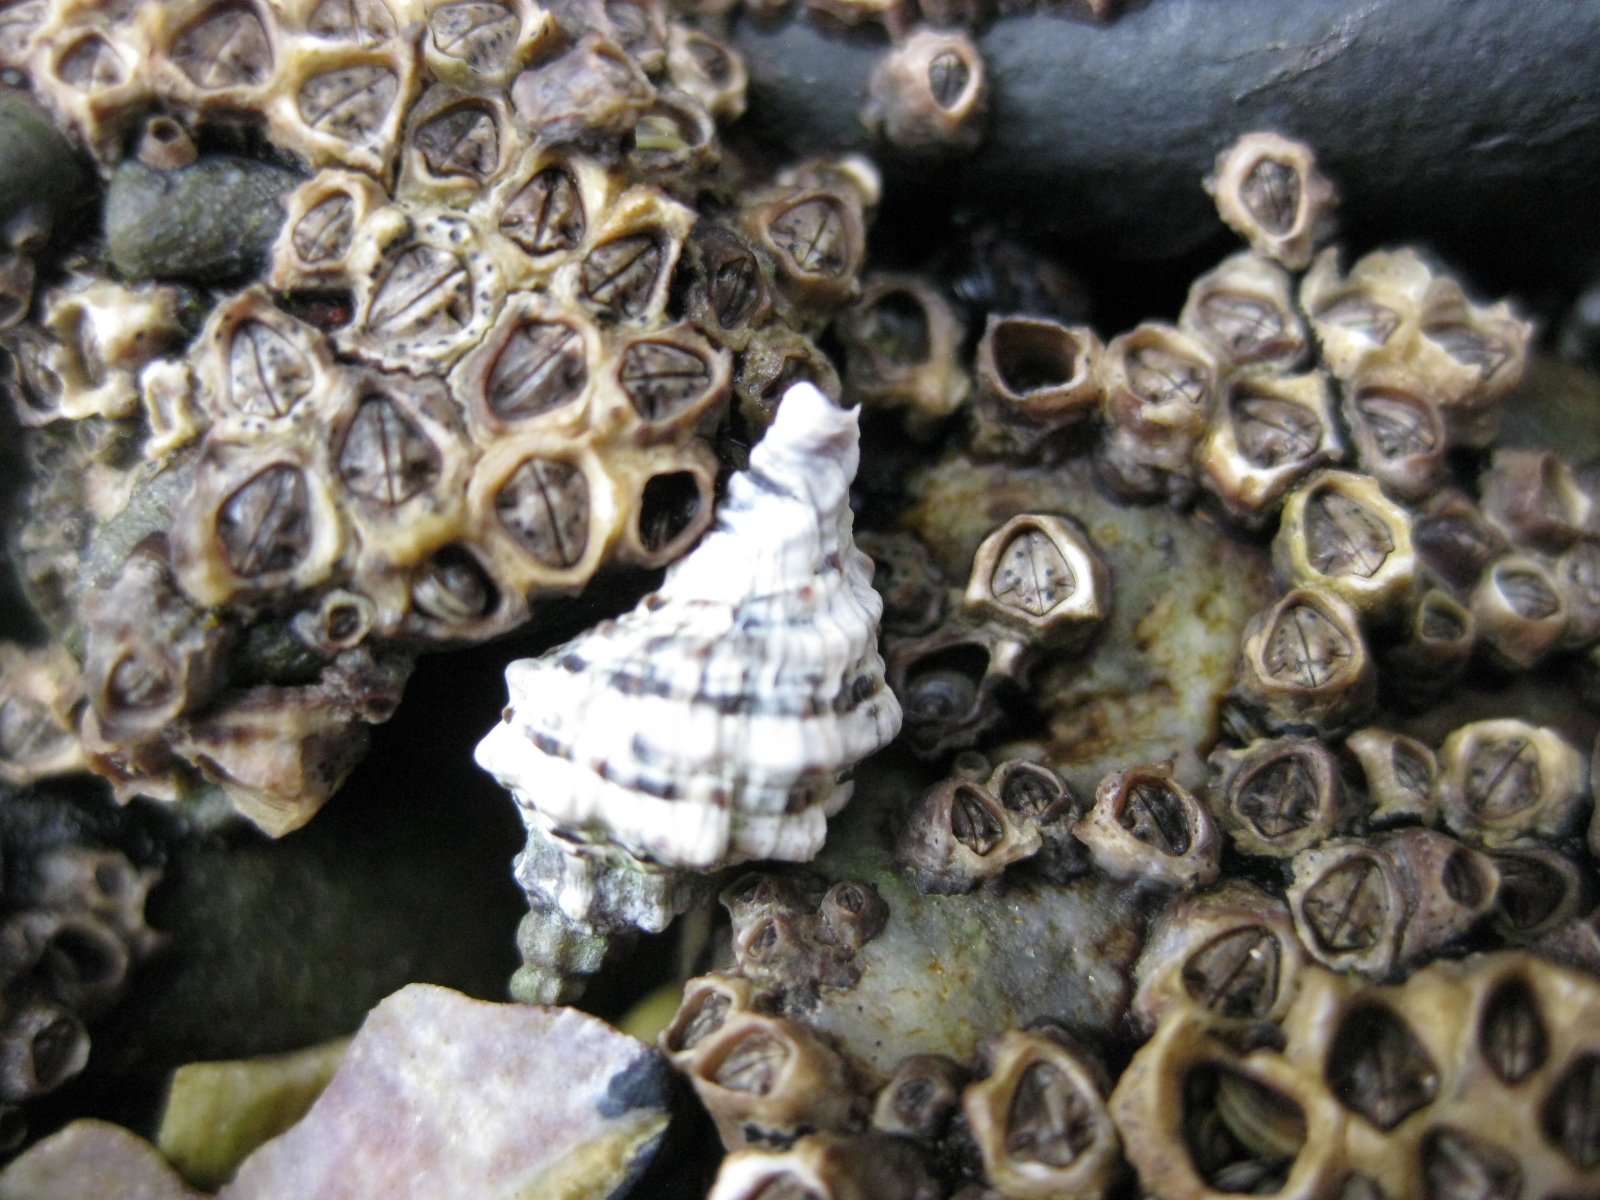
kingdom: Animalia
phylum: Mollusca
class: Gastropoda
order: Neogastropoda
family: Muricidae
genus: Haustrum
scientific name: Haustrum scobina
